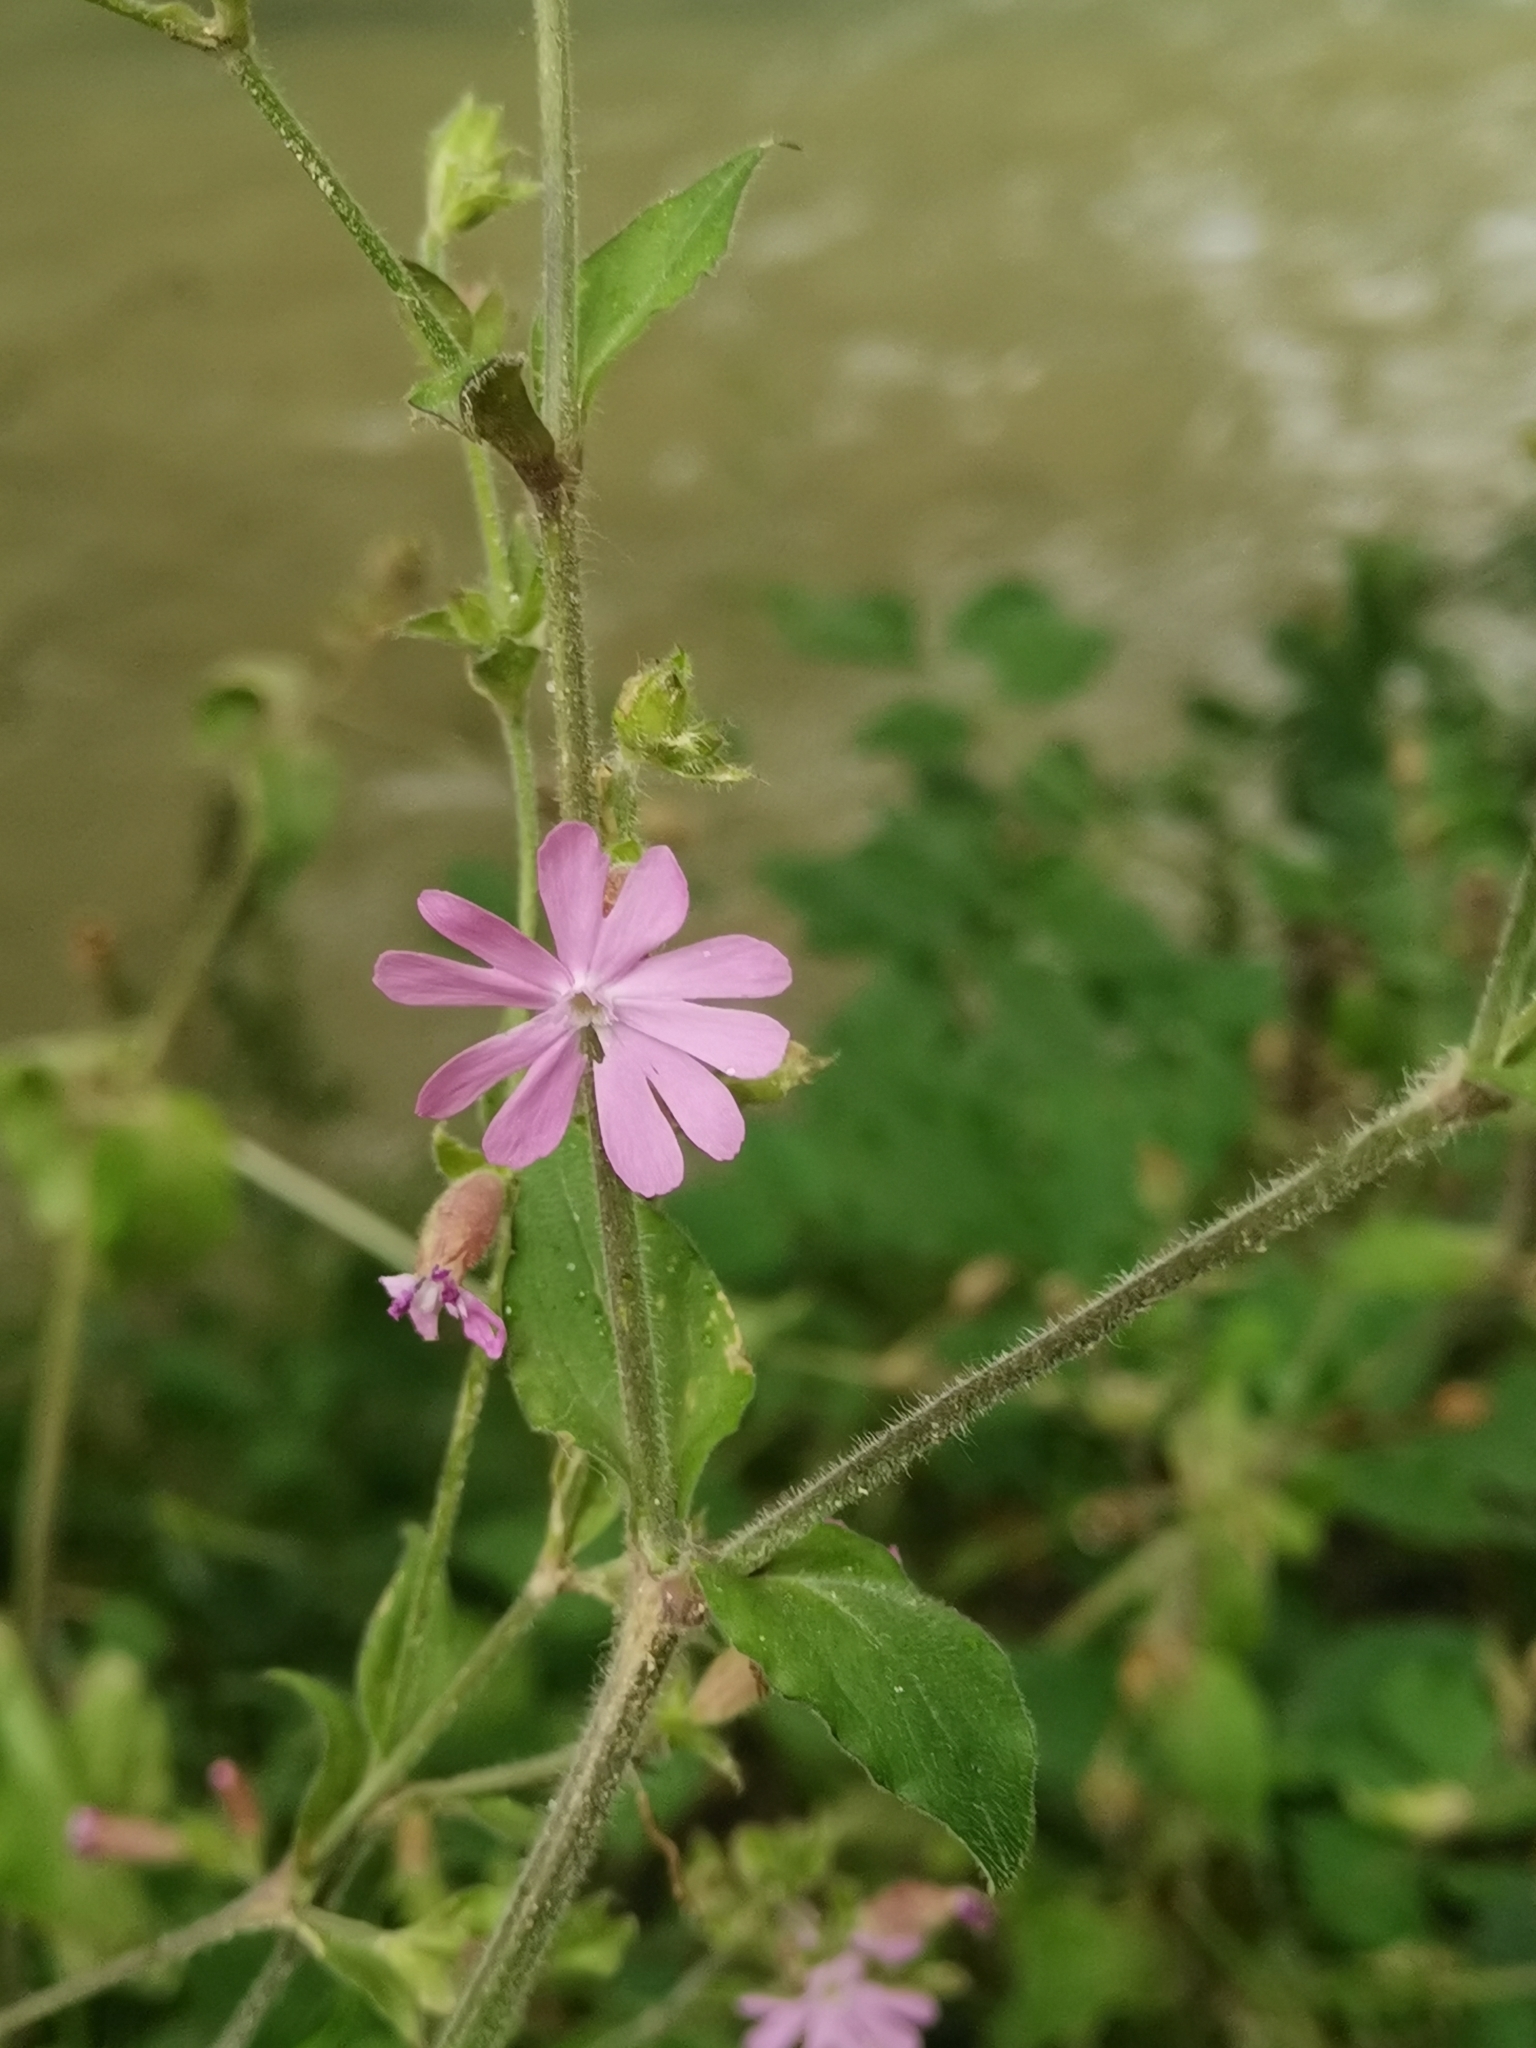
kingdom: Plantae
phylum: Tracheophyta
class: Magnoliopsida
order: Caryophyllales
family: Caryophyllaceae
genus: Silene
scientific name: Silene dioica
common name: Red campion
